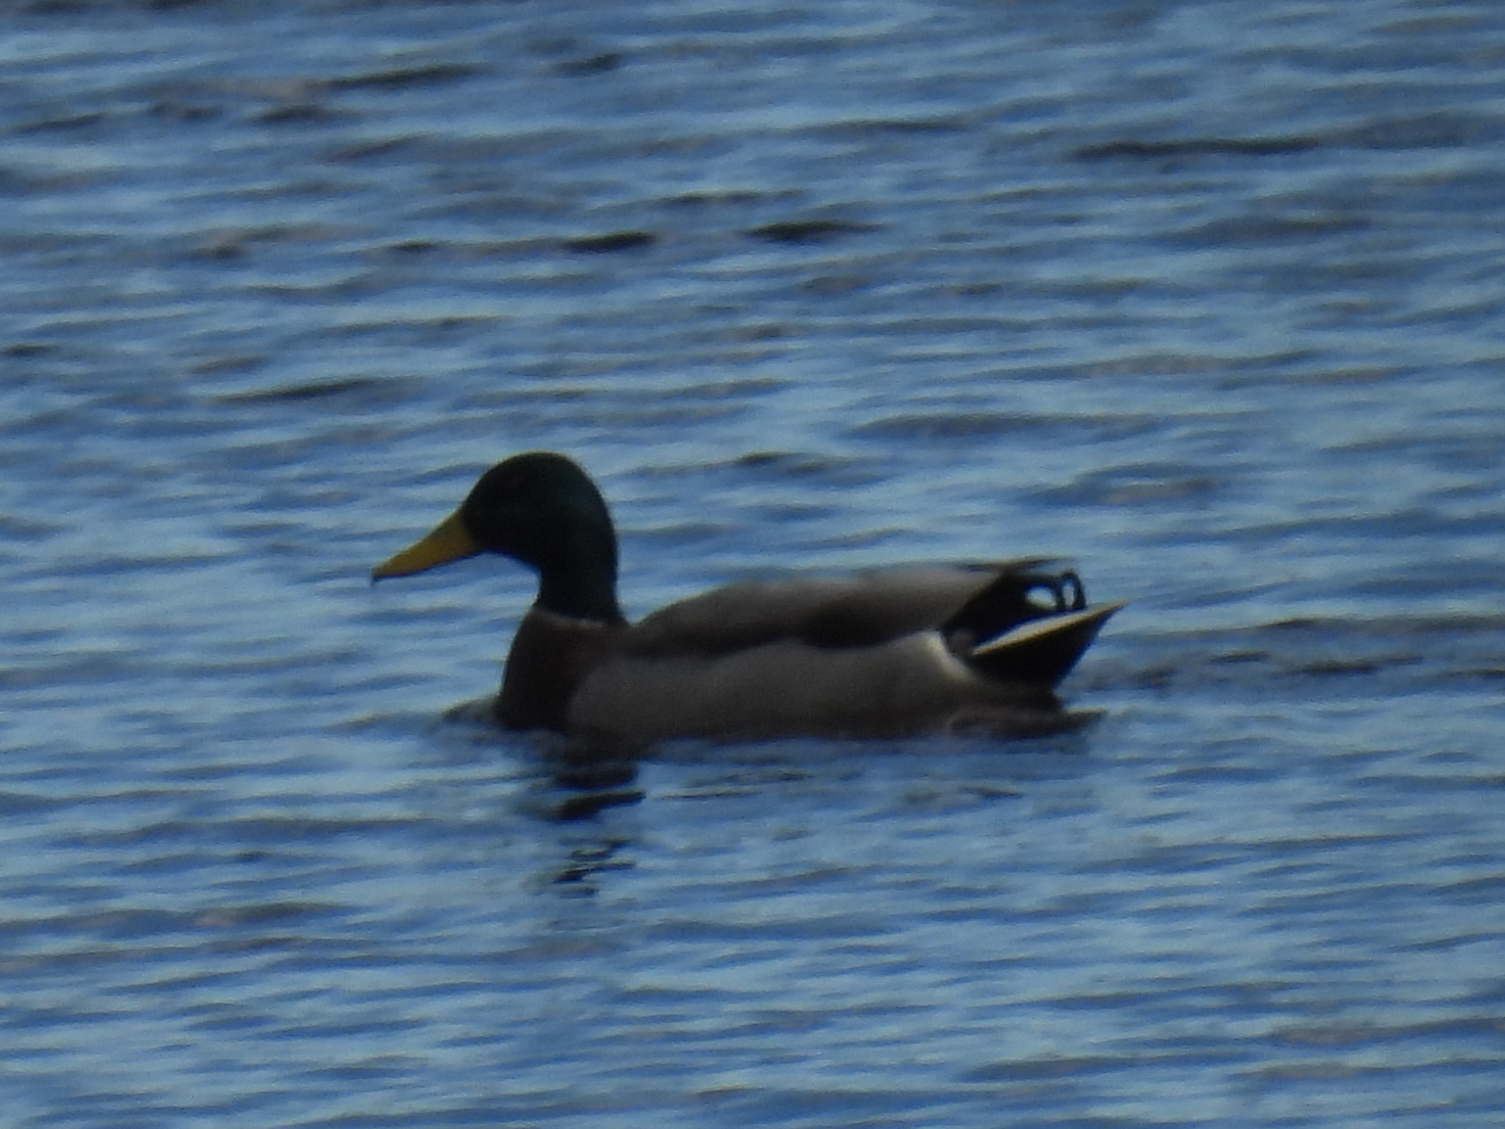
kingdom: Animalia
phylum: Chordata
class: Aves
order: Anseriformes
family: Anatidae
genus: Anas
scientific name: Anas platyrhynchos
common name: Mallard
